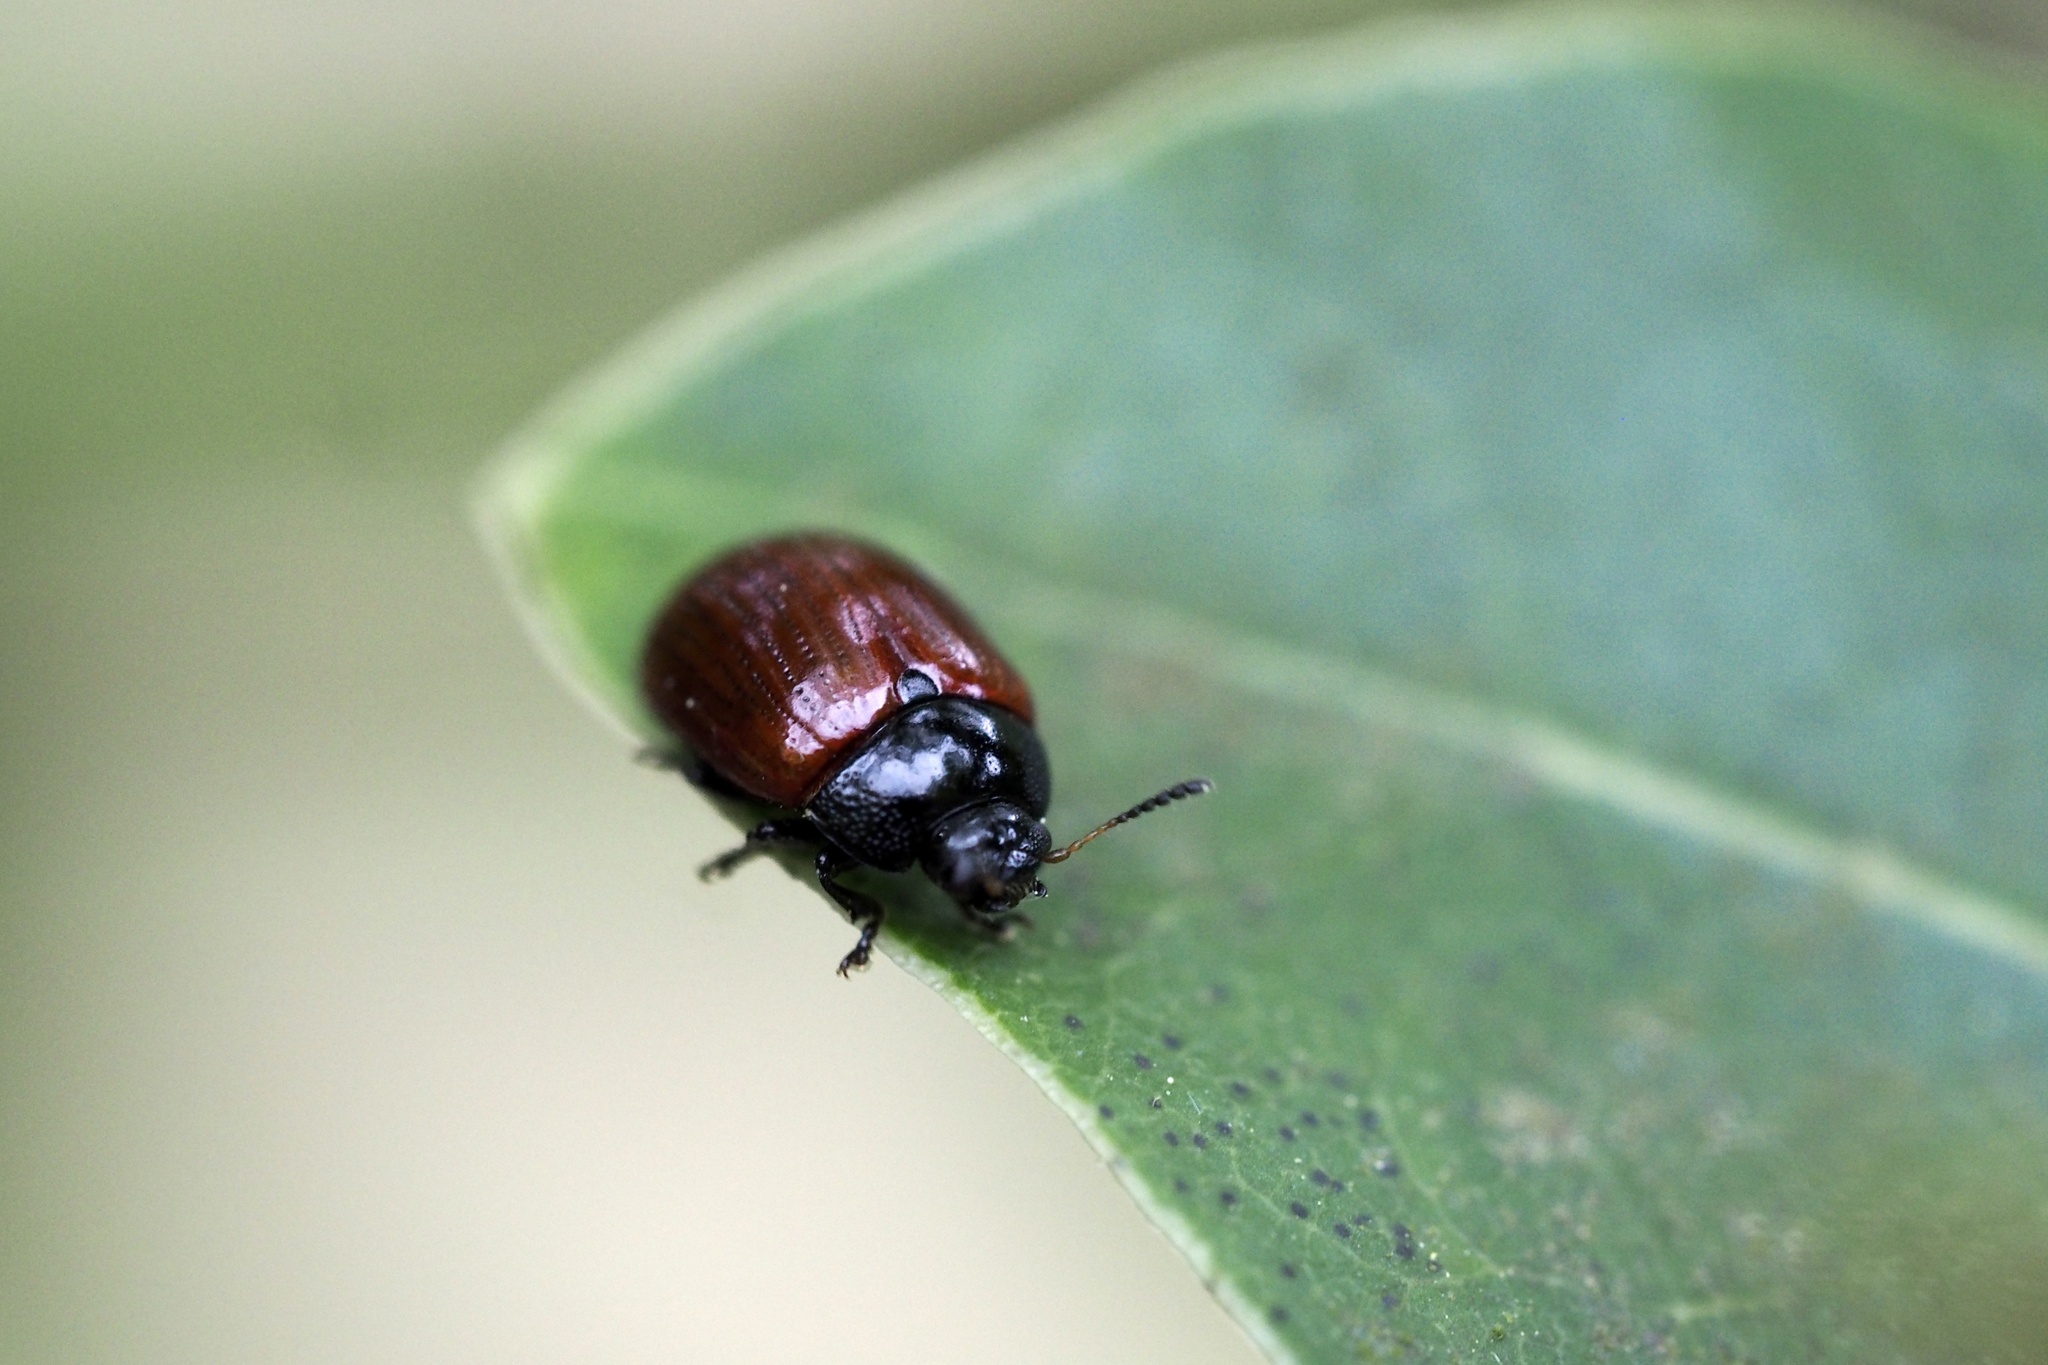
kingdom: Animalia
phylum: Arthropoda
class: Insecta
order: Coleoptera
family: Chrysomelidae
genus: Gonioctena
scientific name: Gonioctena
